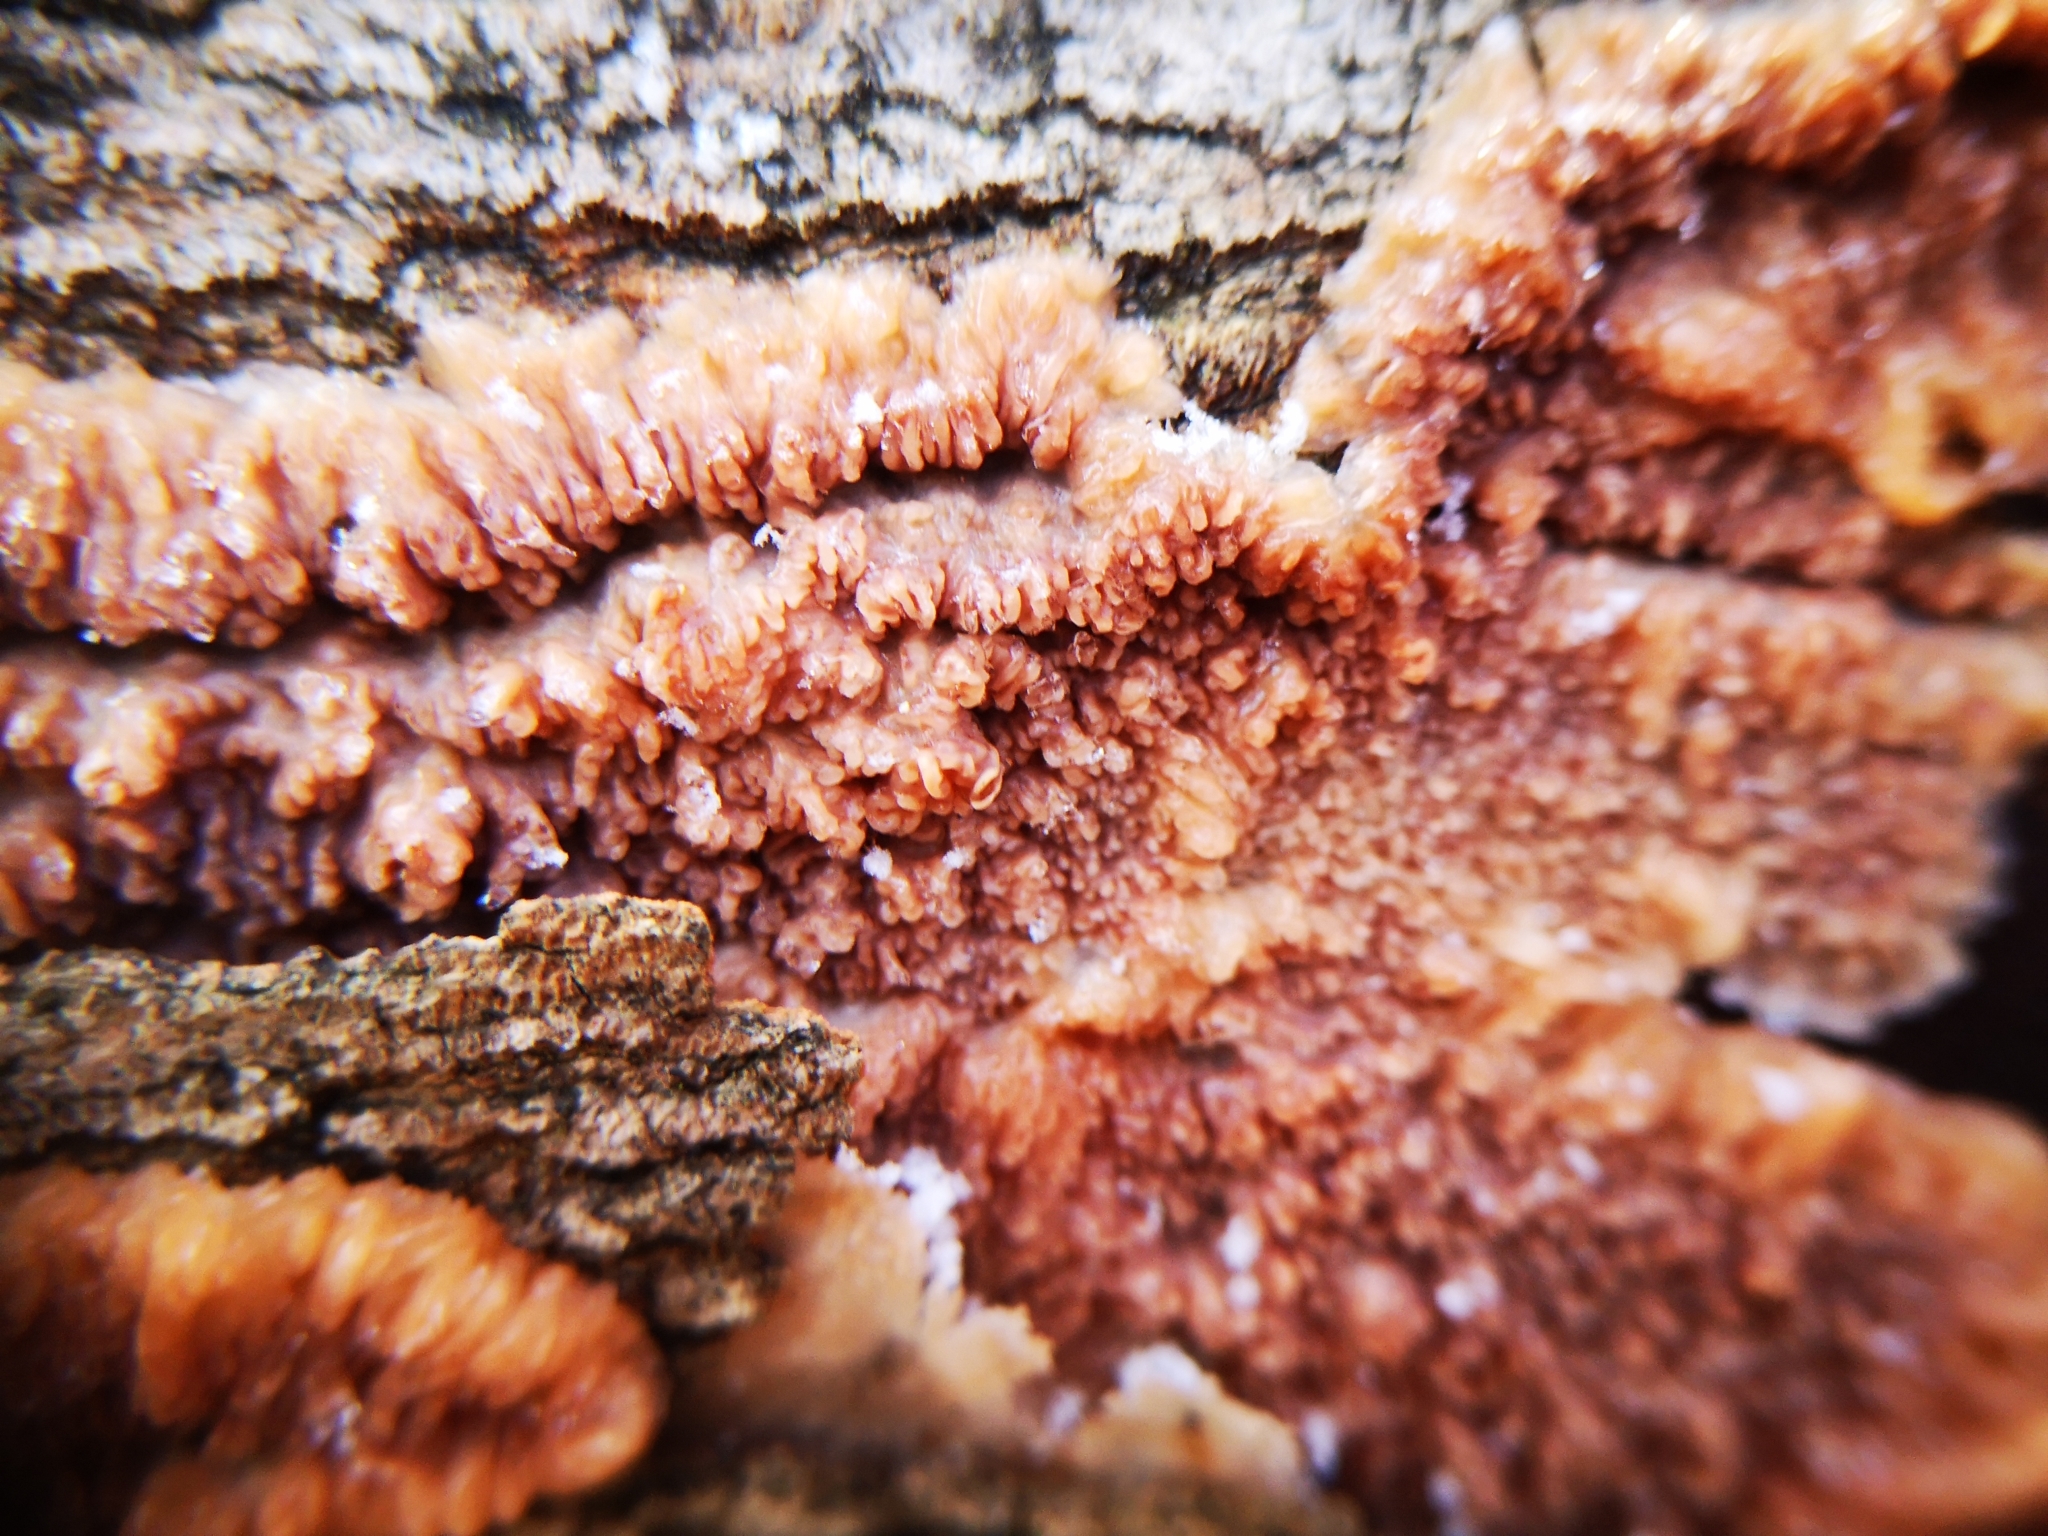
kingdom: Fungi
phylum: Basidiomycota
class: Agaricomycetes
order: Polyporales
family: Meruliaceae
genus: Phlebia
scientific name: Phlebia radiata
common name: Wrinkled crust
